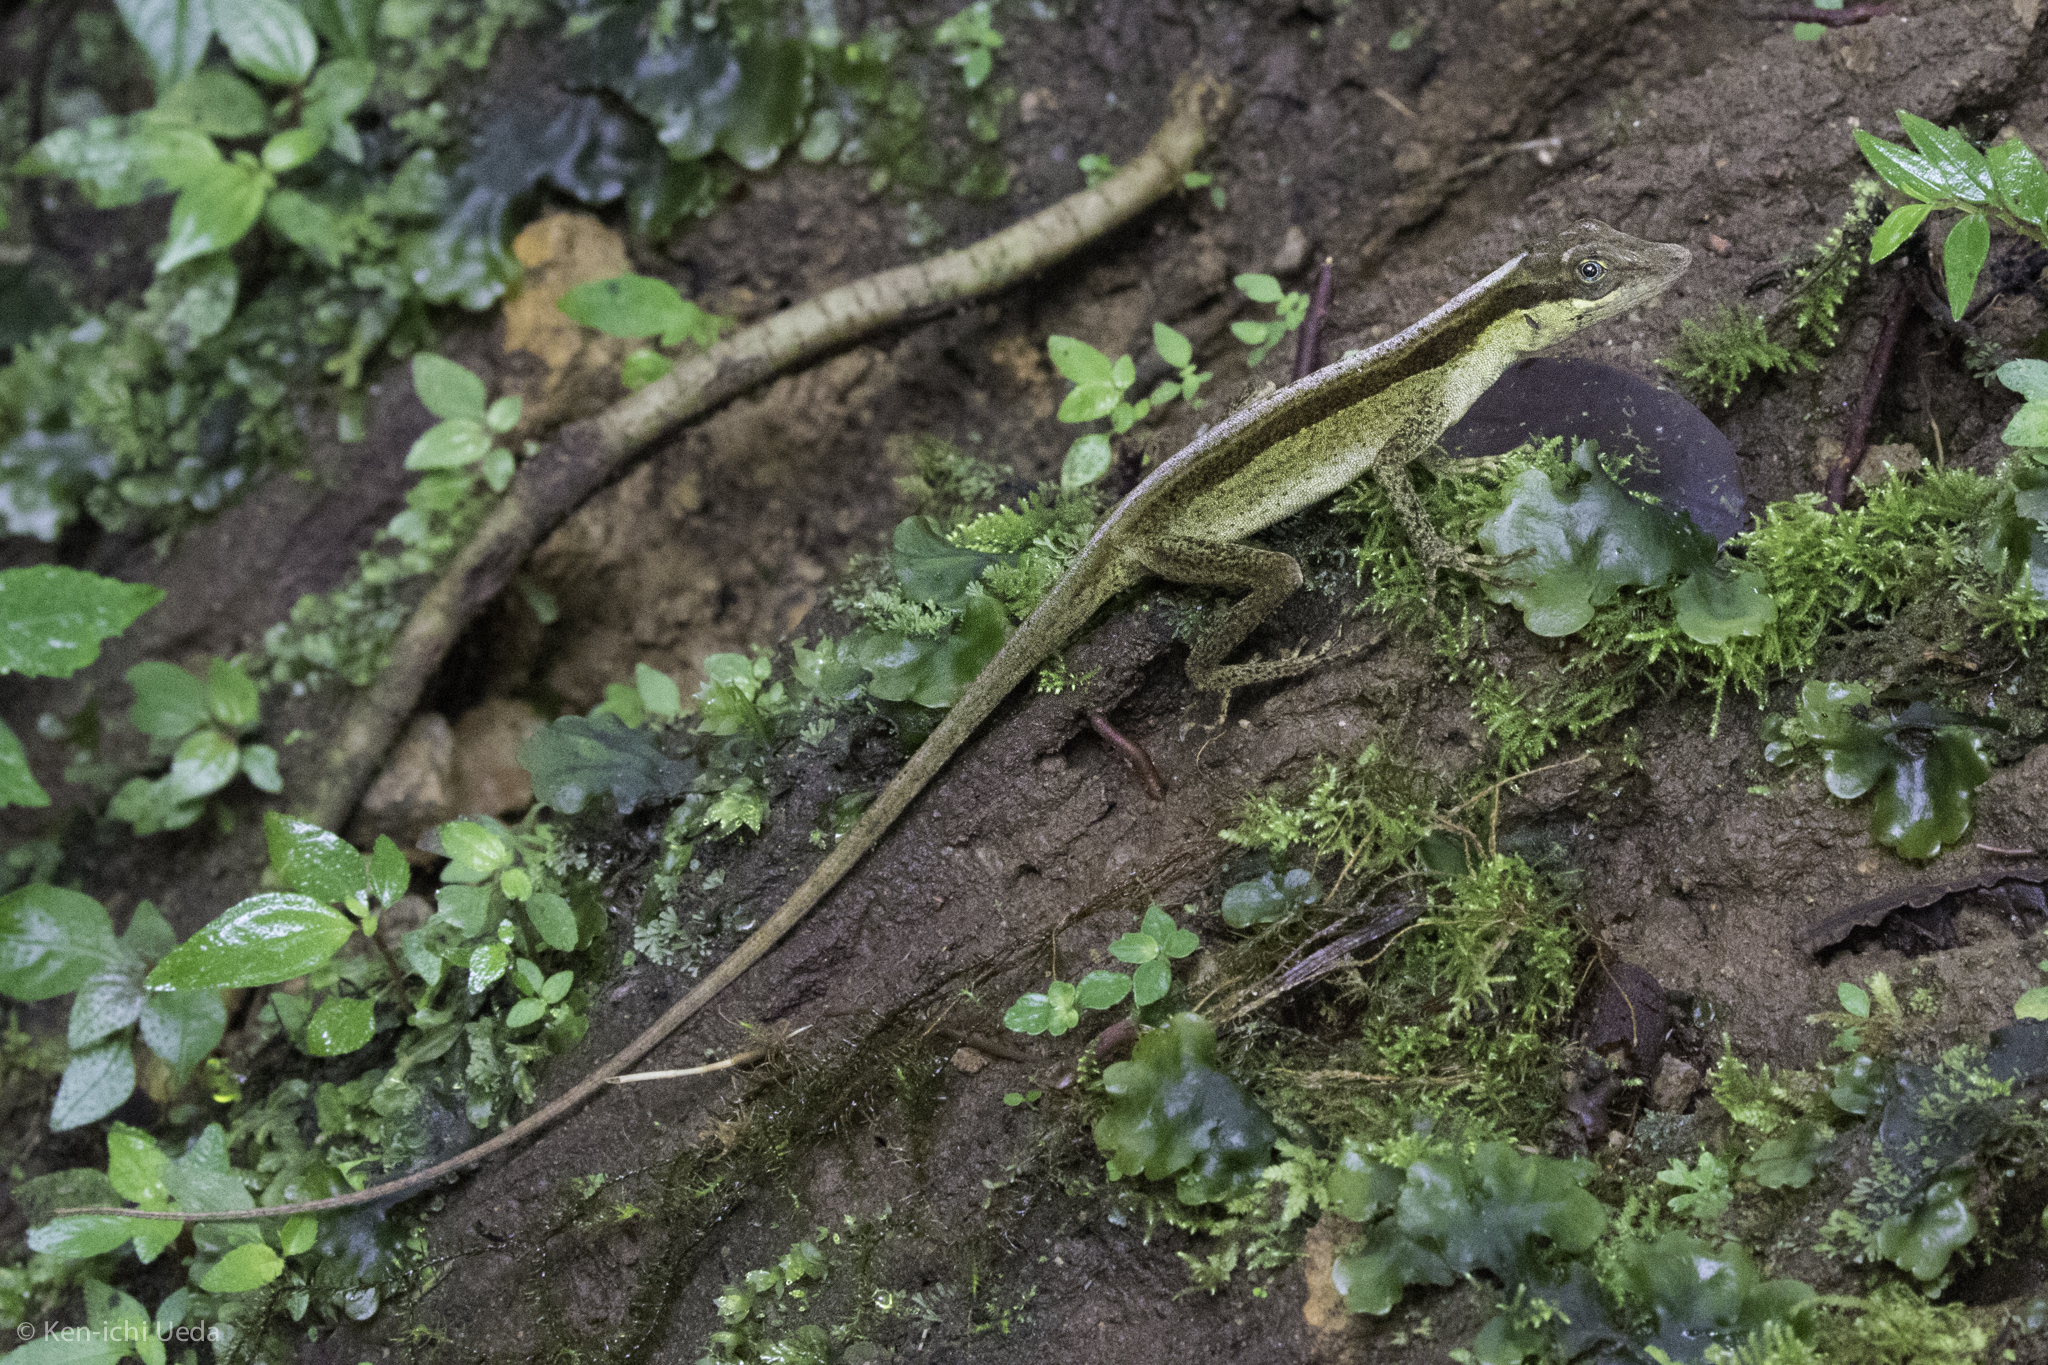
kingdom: Animalia
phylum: Chordata
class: Squamata
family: Dactyloidae
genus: Anolis
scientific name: Anolis woodi
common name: Wood's anole
